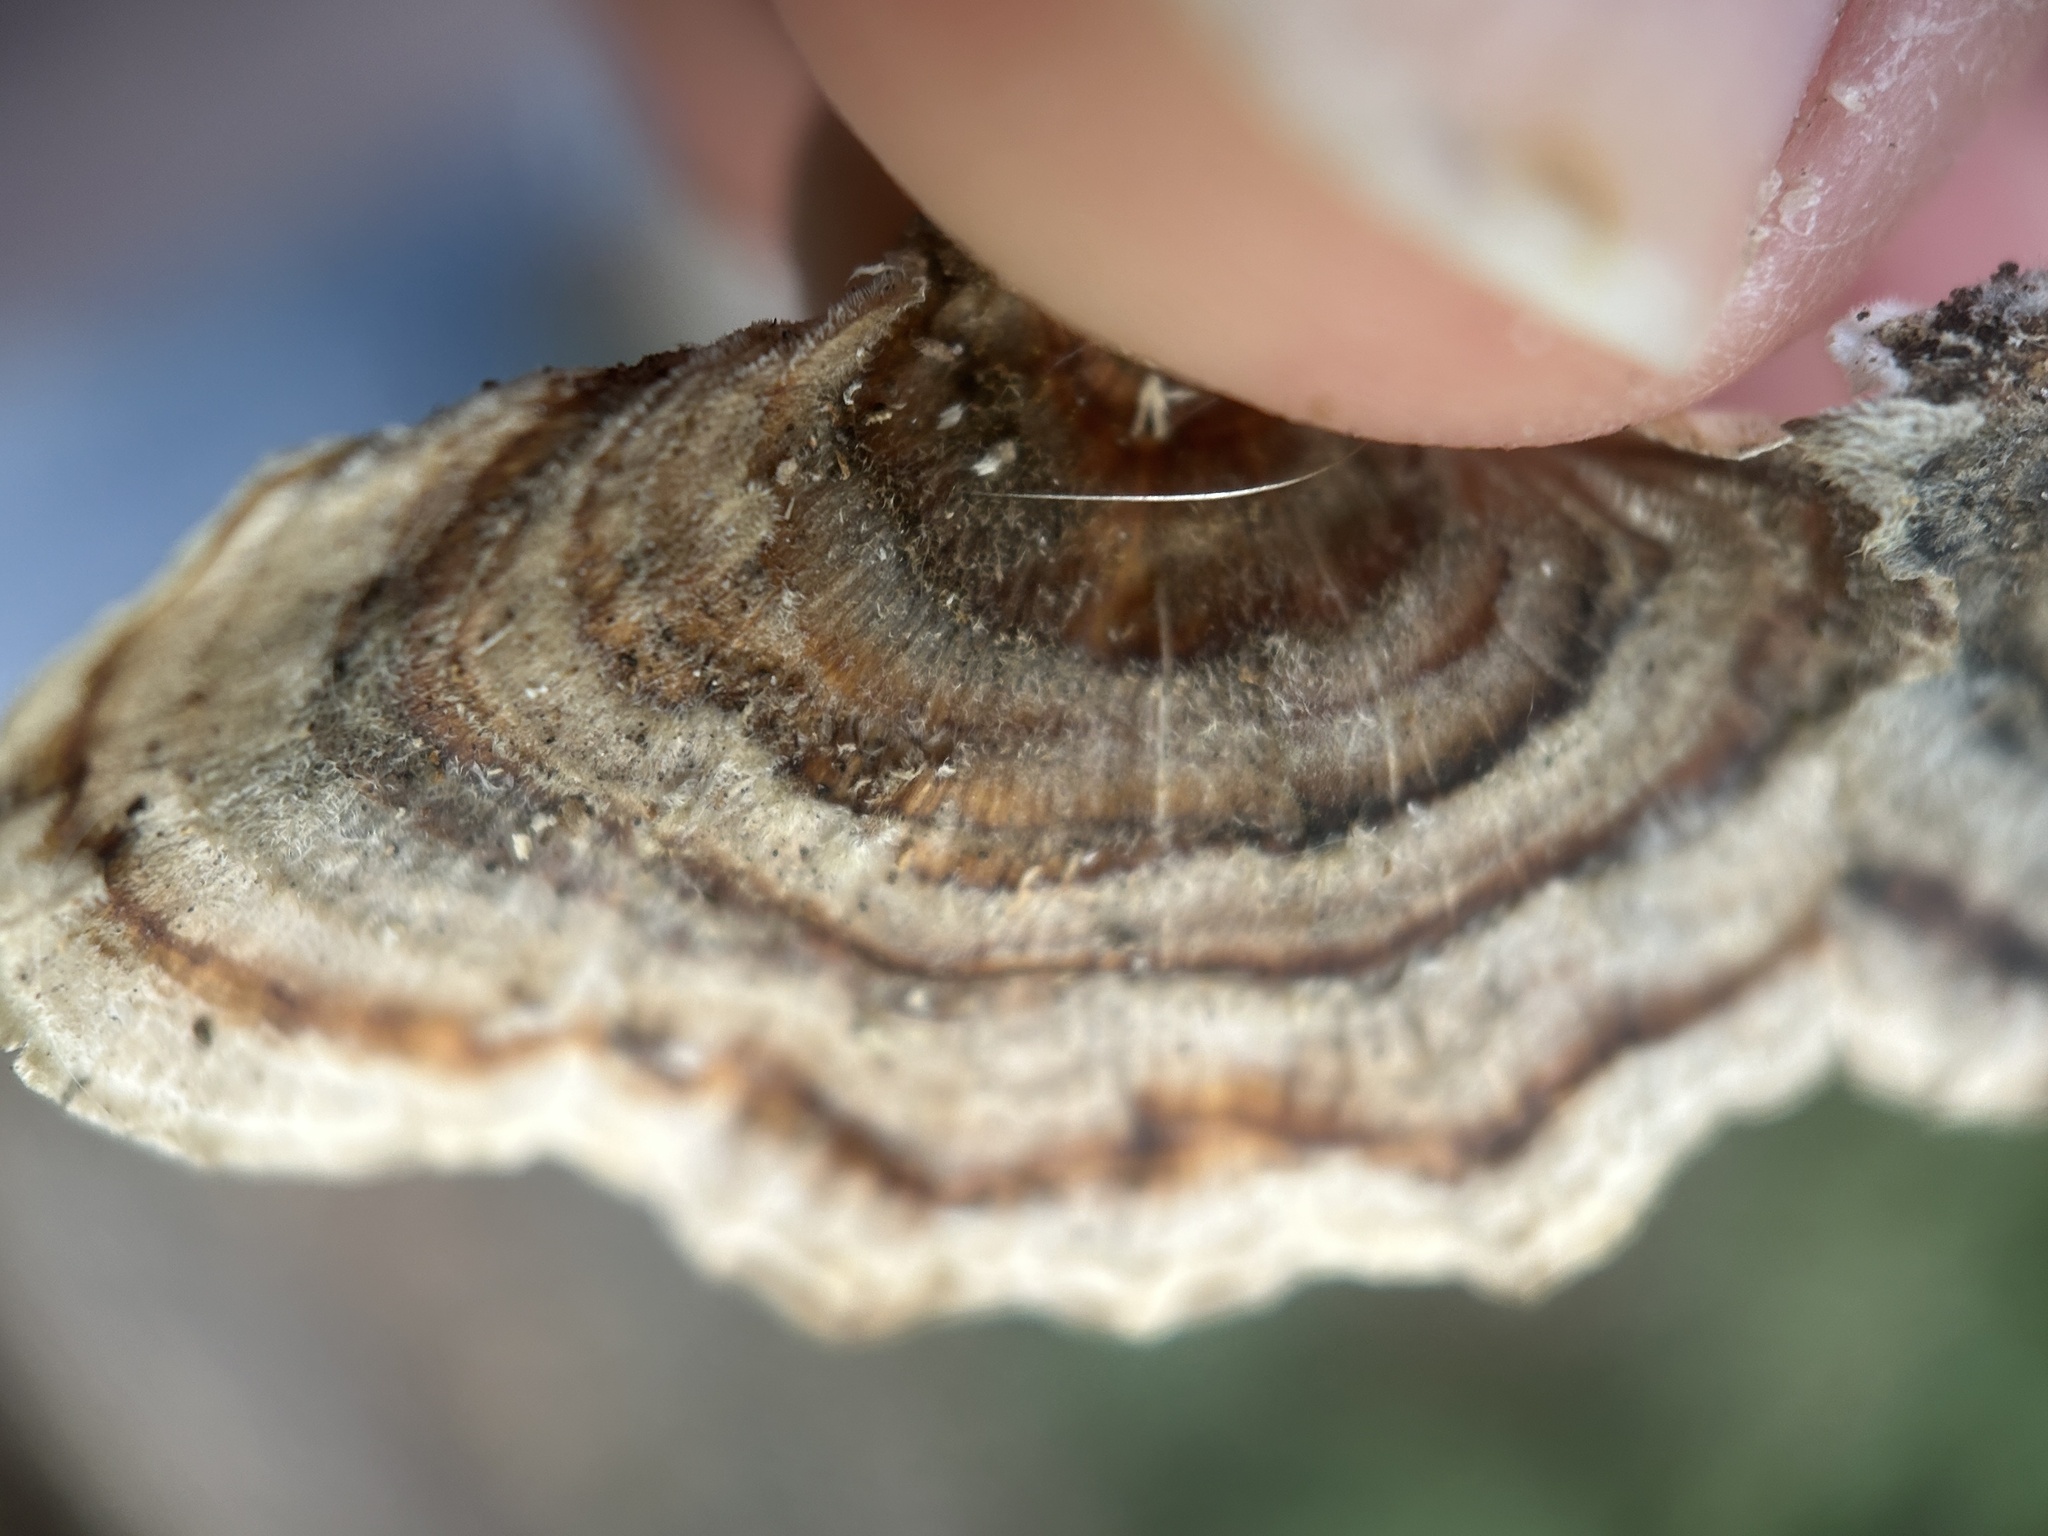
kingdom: Fungi
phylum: Basidiomycota
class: Agaricomycetes
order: Polyporales
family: Polyporaceae
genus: Trametes
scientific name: Trametes versicolor
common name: Turkeytail
